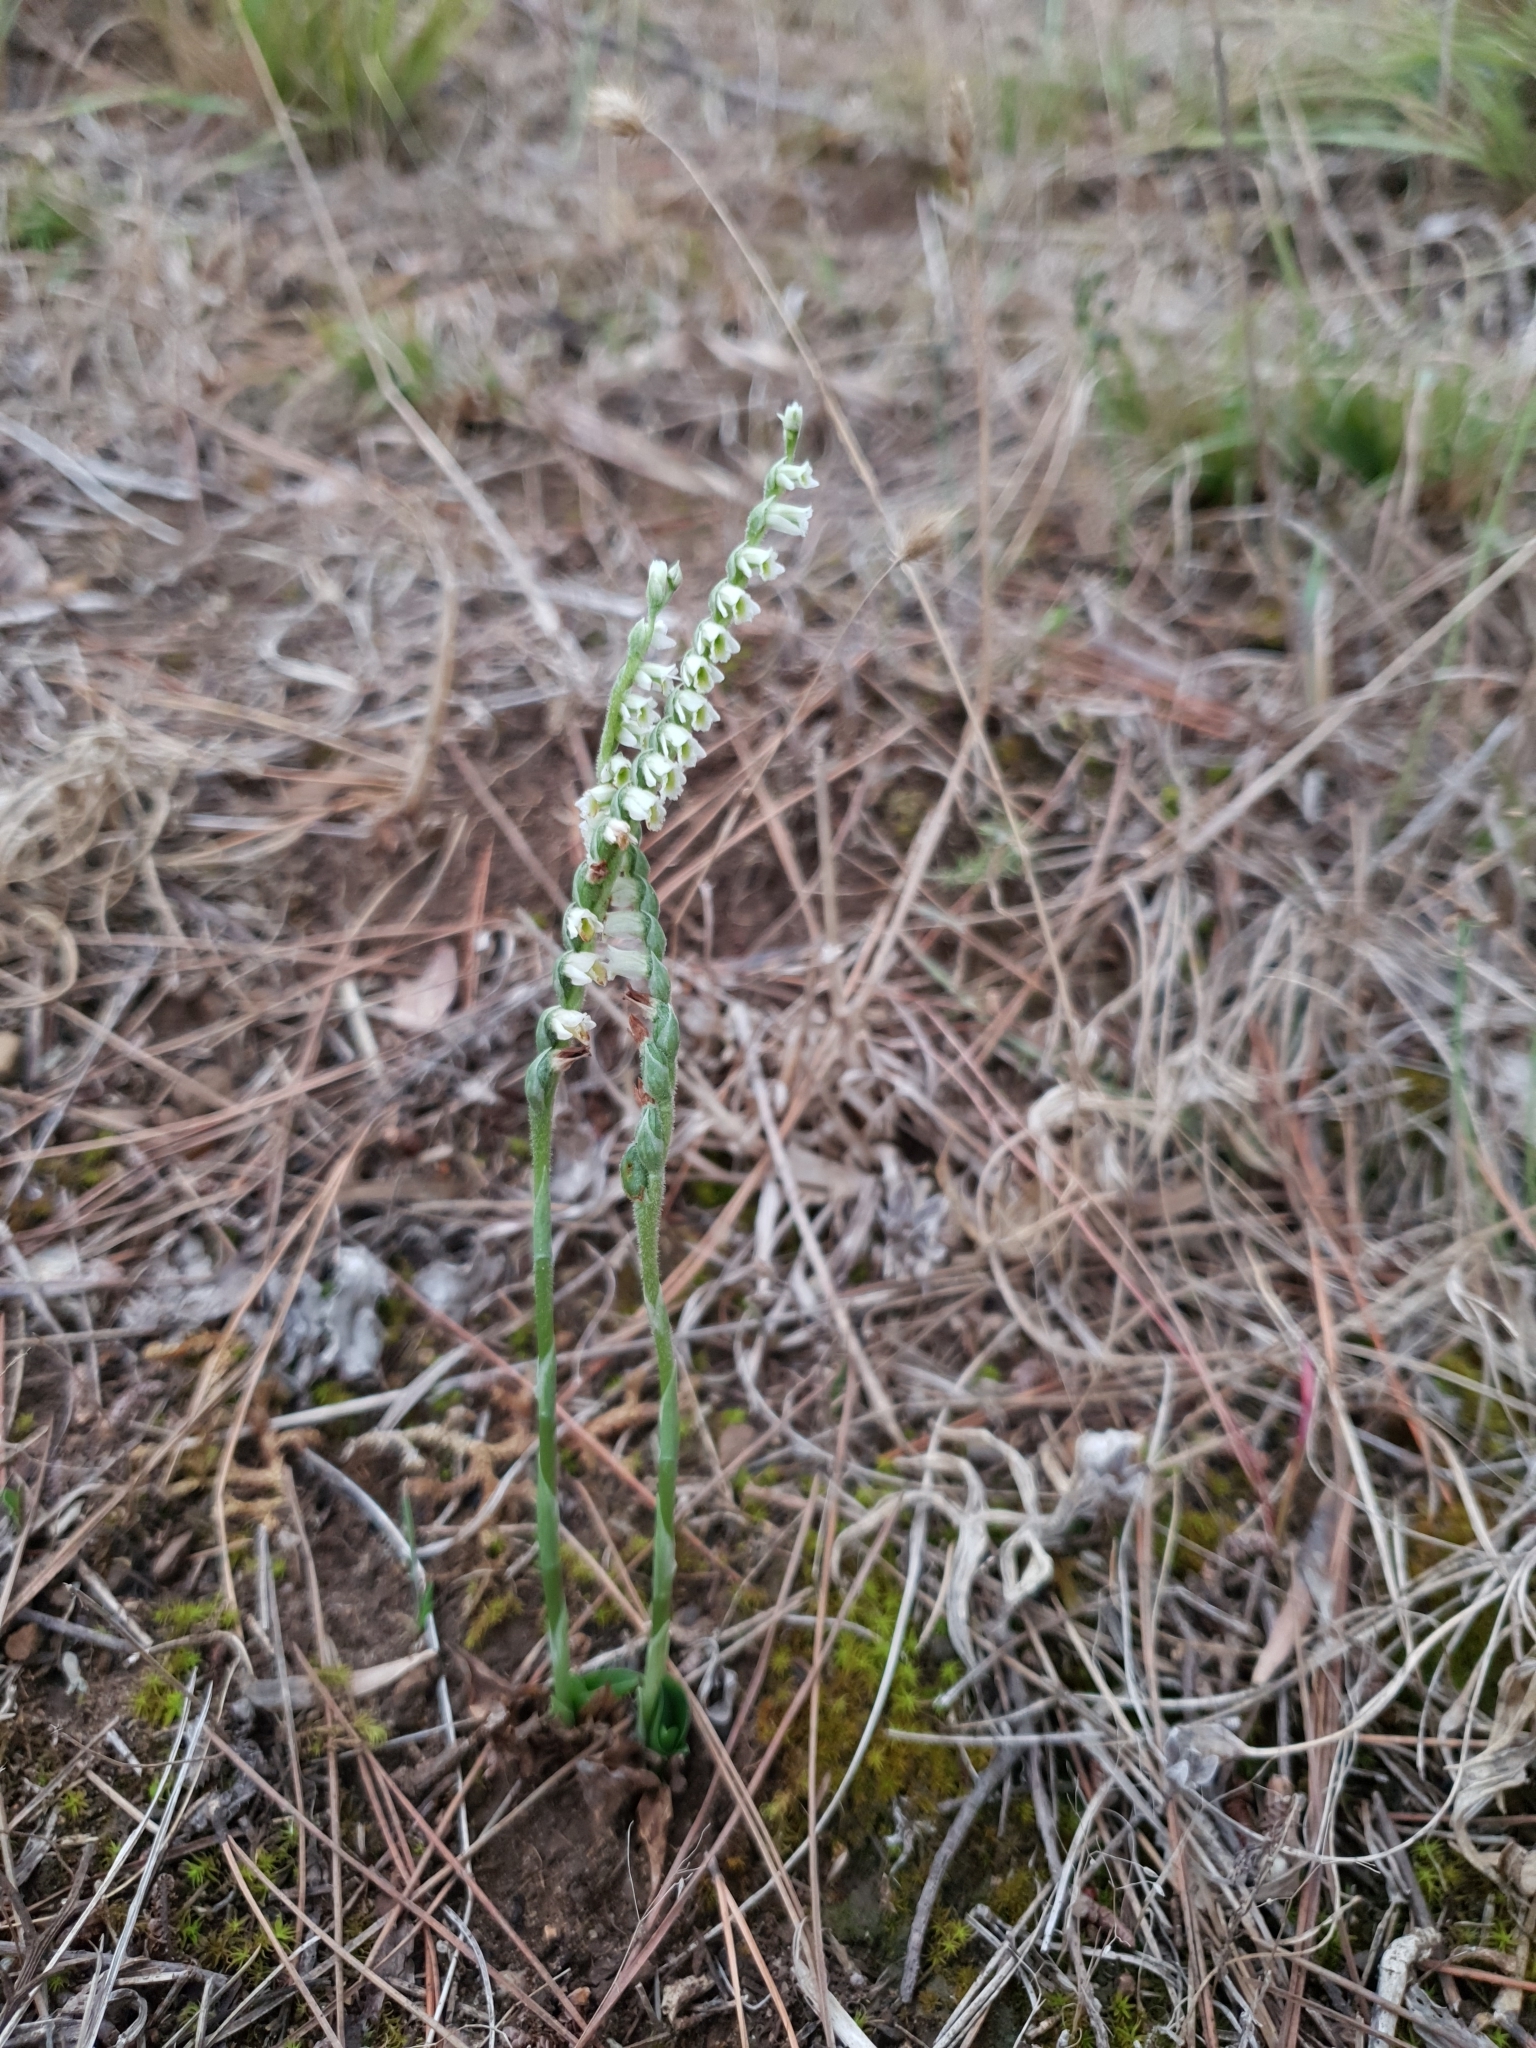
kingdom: Plantae
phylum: Tracheophyta
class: Liliopsida
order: Asparagales
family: Orchidaceae
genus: Spiranthes
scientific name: Spiranthes spiralis
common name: Autumn lady's-tresses
